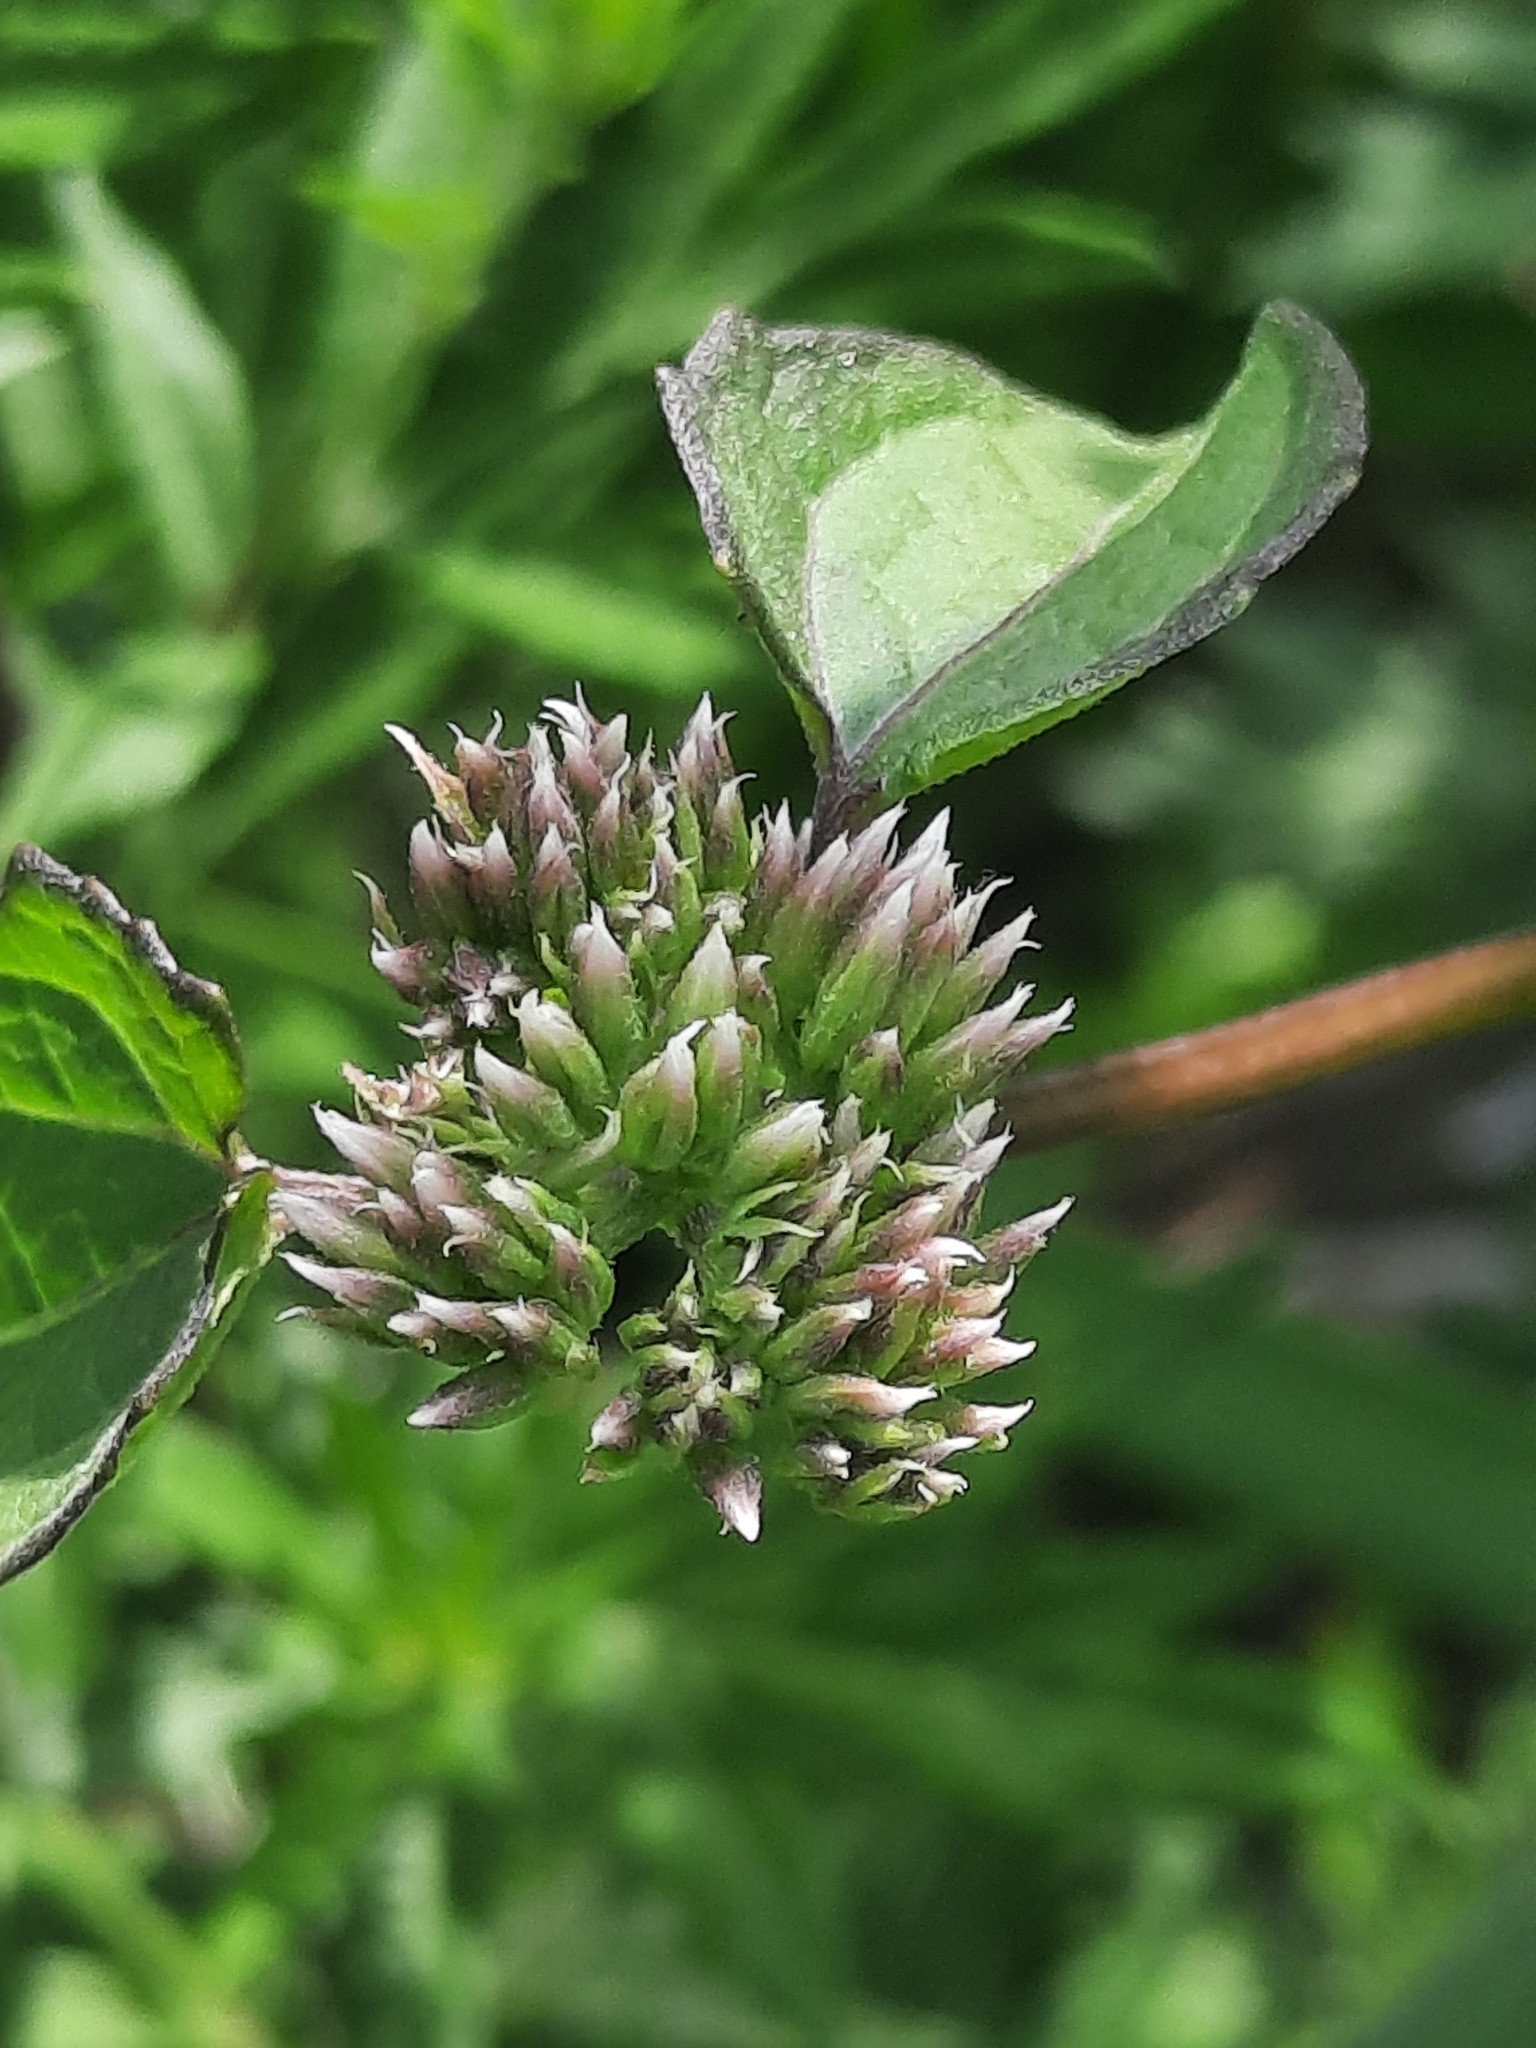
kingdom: Plantae
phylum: Tracheophyta
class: Magnoliopsida
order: Asterales
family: Asteraceae
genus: Mikania
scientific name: Mikania scandens
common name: Climbing hempvine
